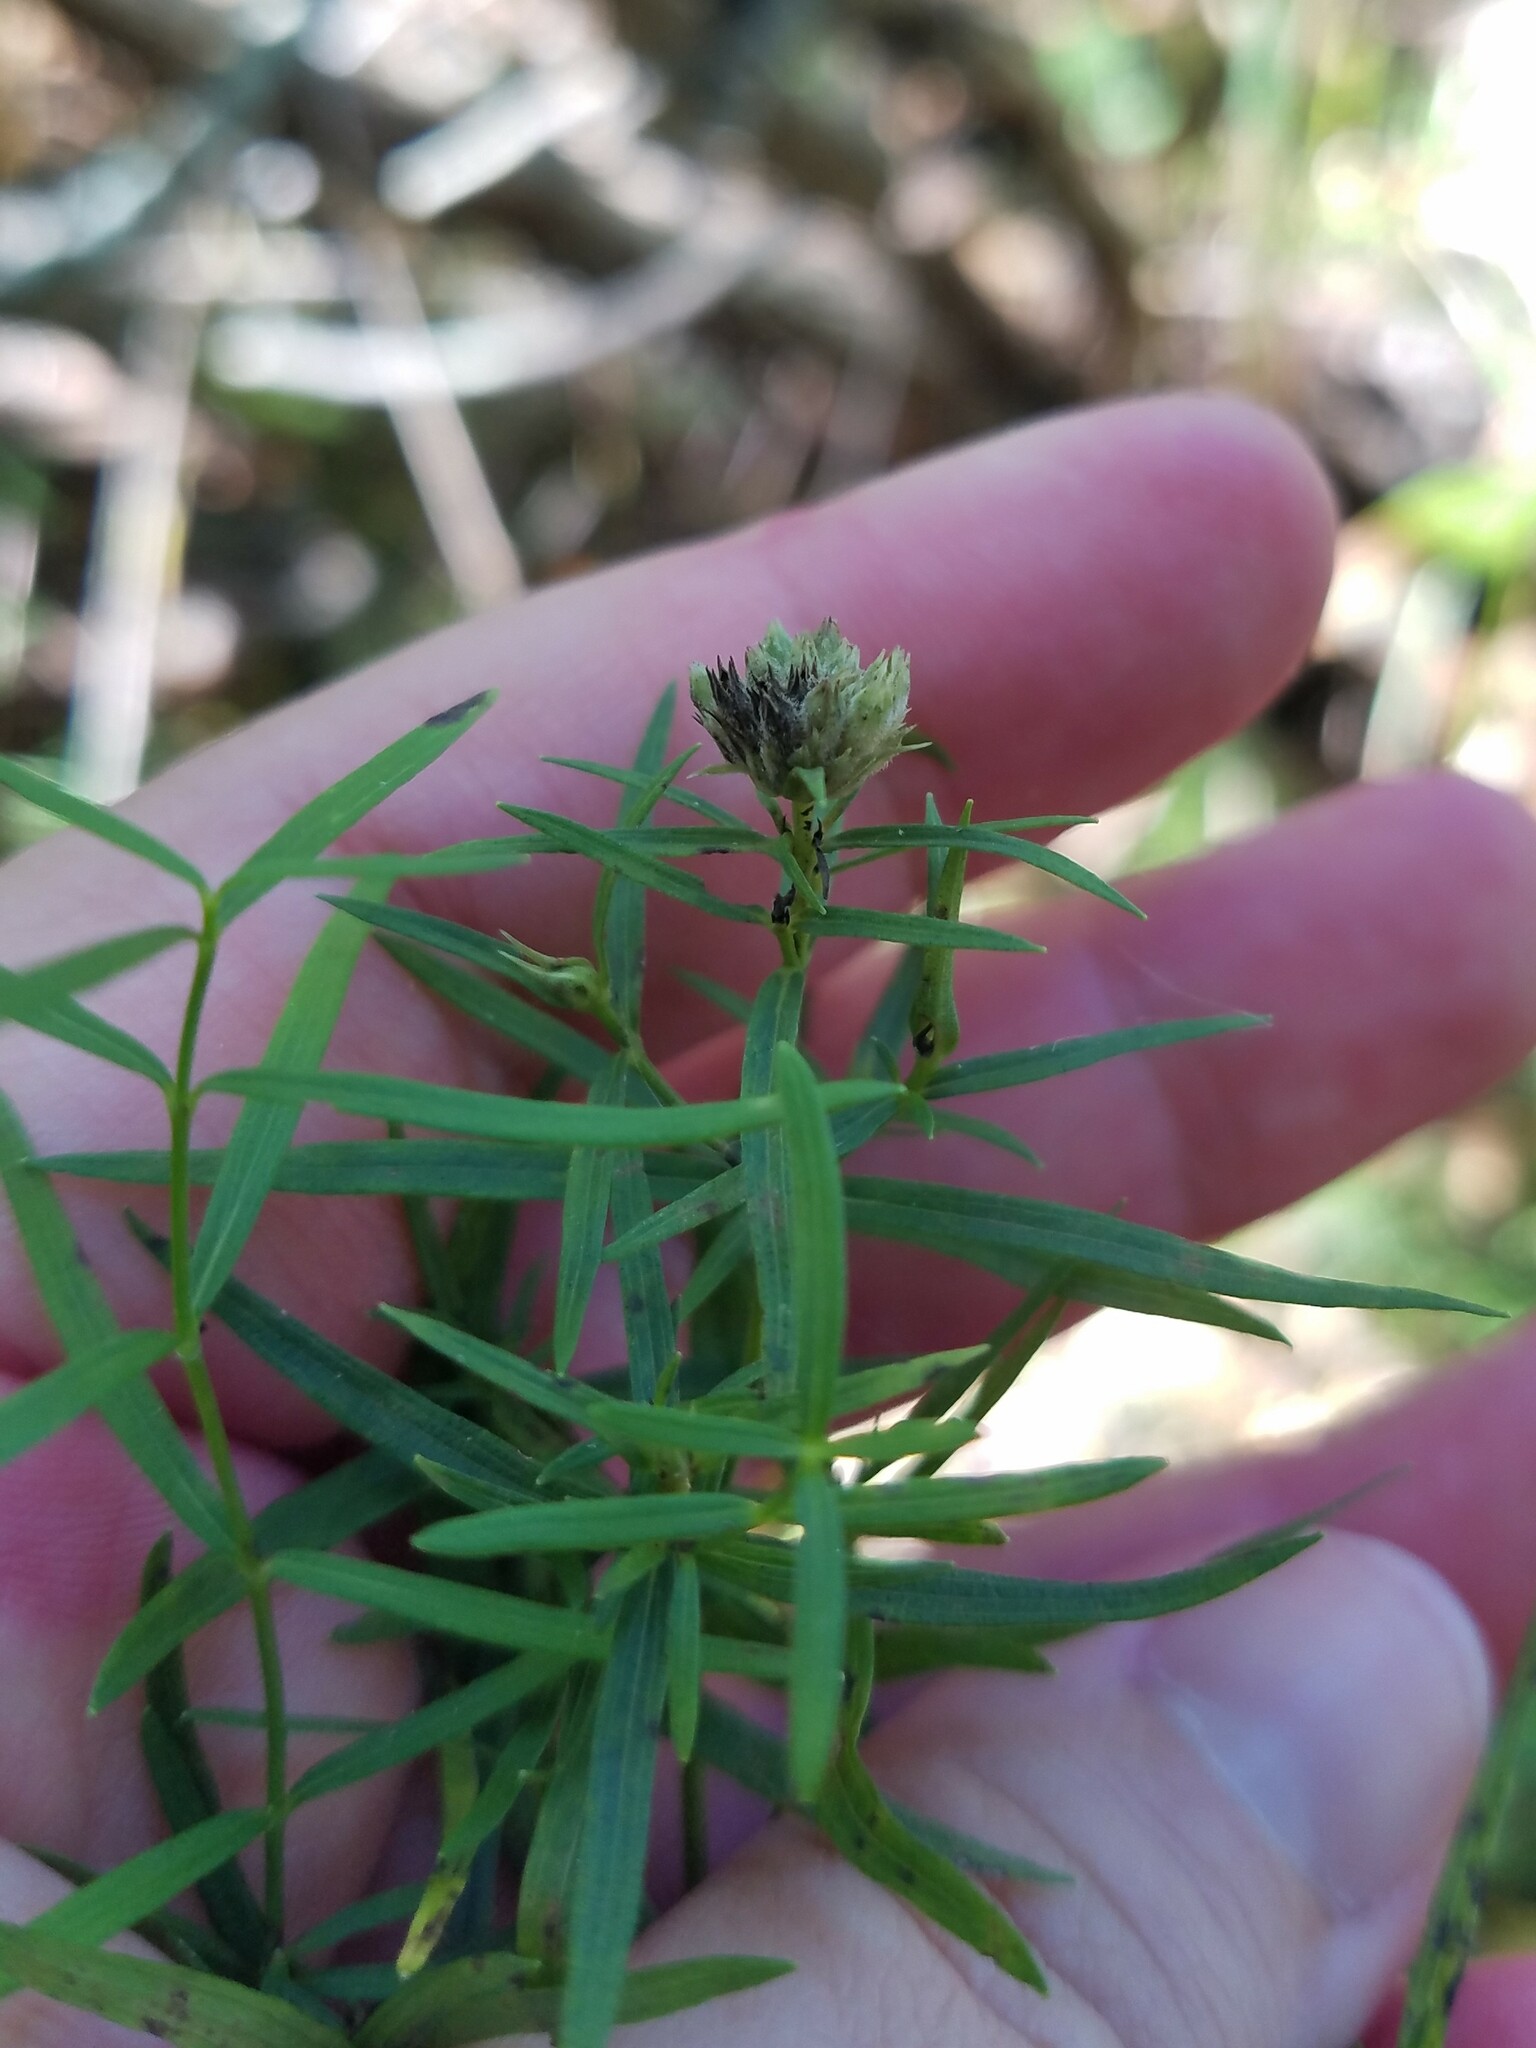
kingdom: Plantae
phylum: Tracheophyta
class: Magnoliopsida
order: Lamiales
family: Lamiaceae
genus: Pycnanthemum
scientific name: Pycnanthemum tenuifolium
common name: Narrow-leaf mountain-mint
